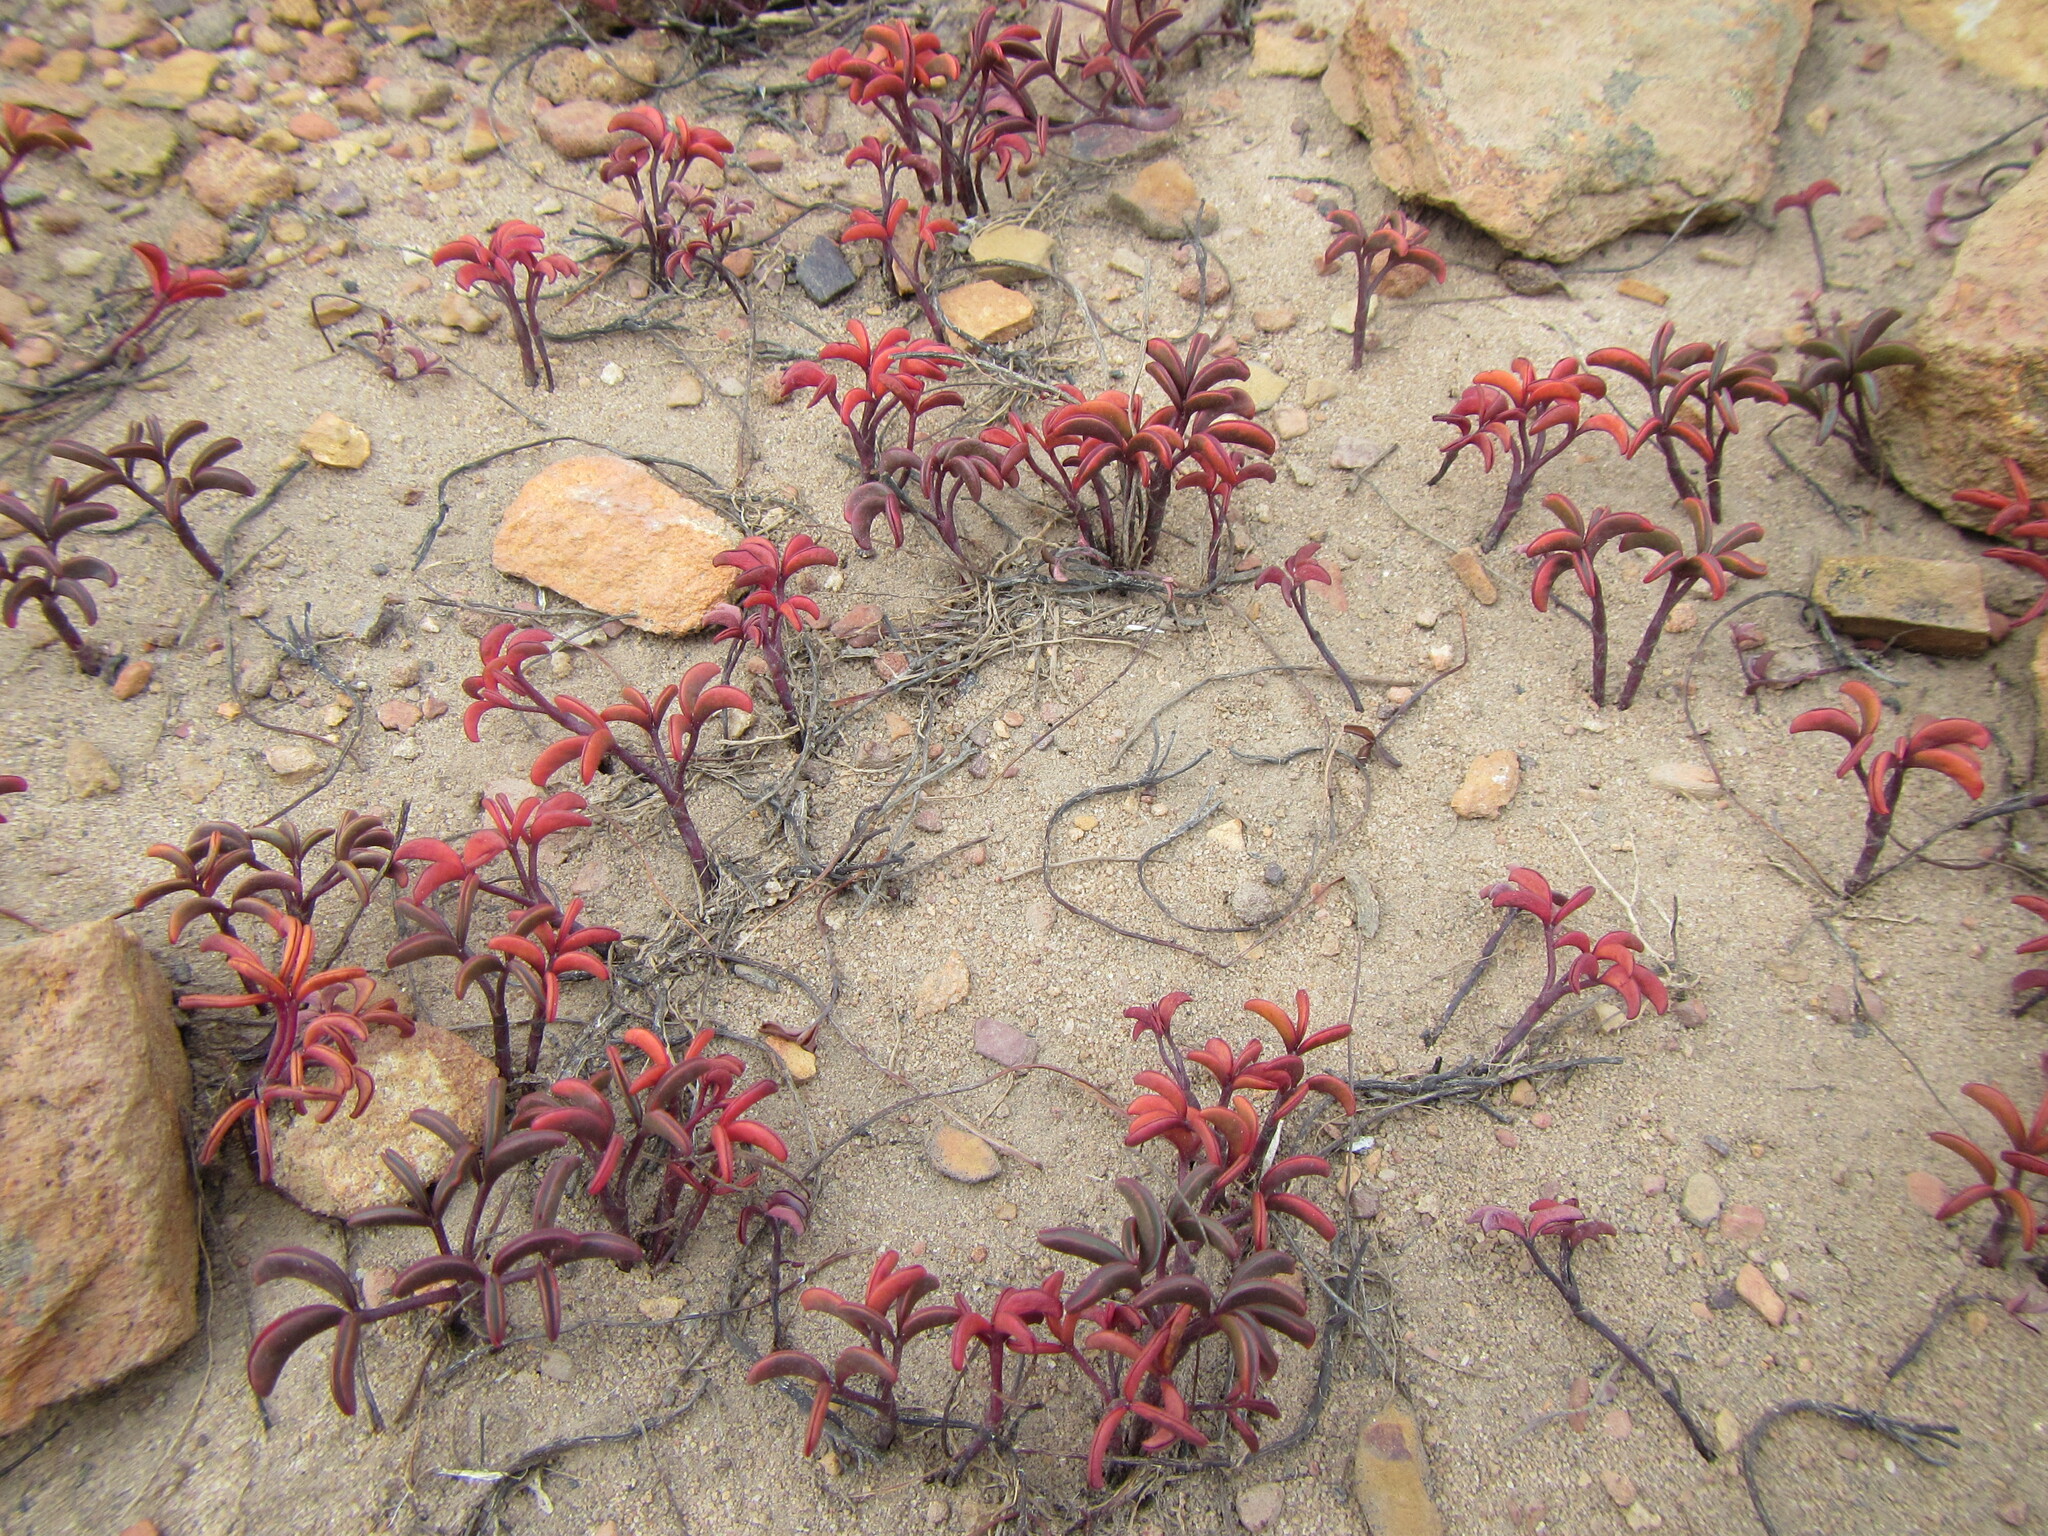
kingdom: Plantae
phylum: Tracheophyta
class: Magnoliopsida
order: Oxalidales
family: Oxalidaceae
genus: Oxalis
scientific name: Oxalis stokoei
